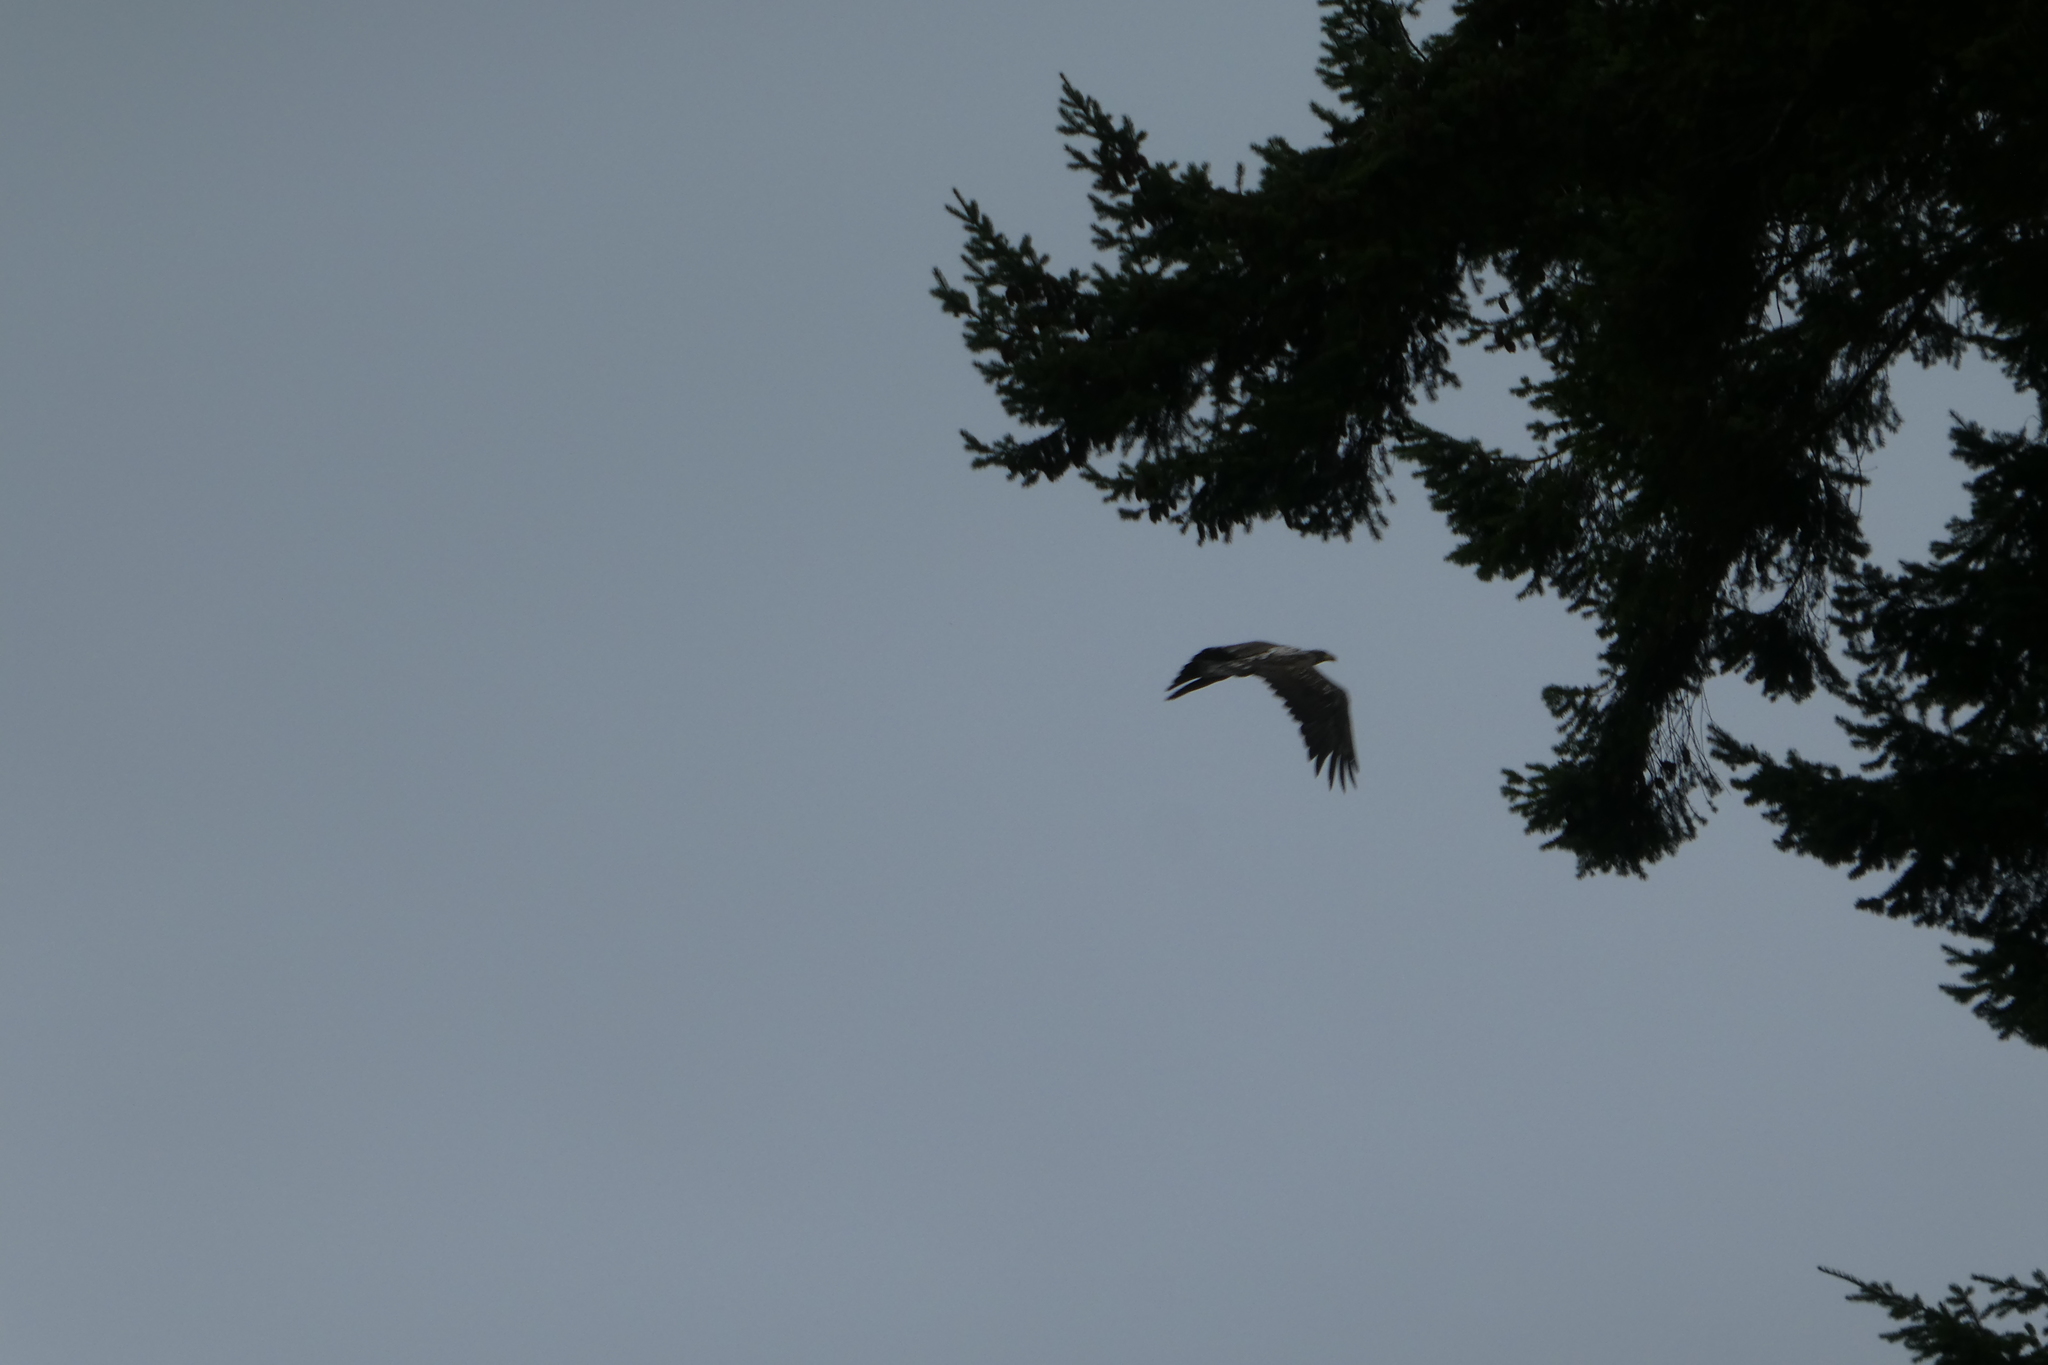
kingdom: Animalia
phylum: Chordata
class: Aves
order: Accipitriformes
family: Accipitridae
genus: Haliaeetus
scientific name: Haliaeetus leucocephalus
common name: Bald eagle
